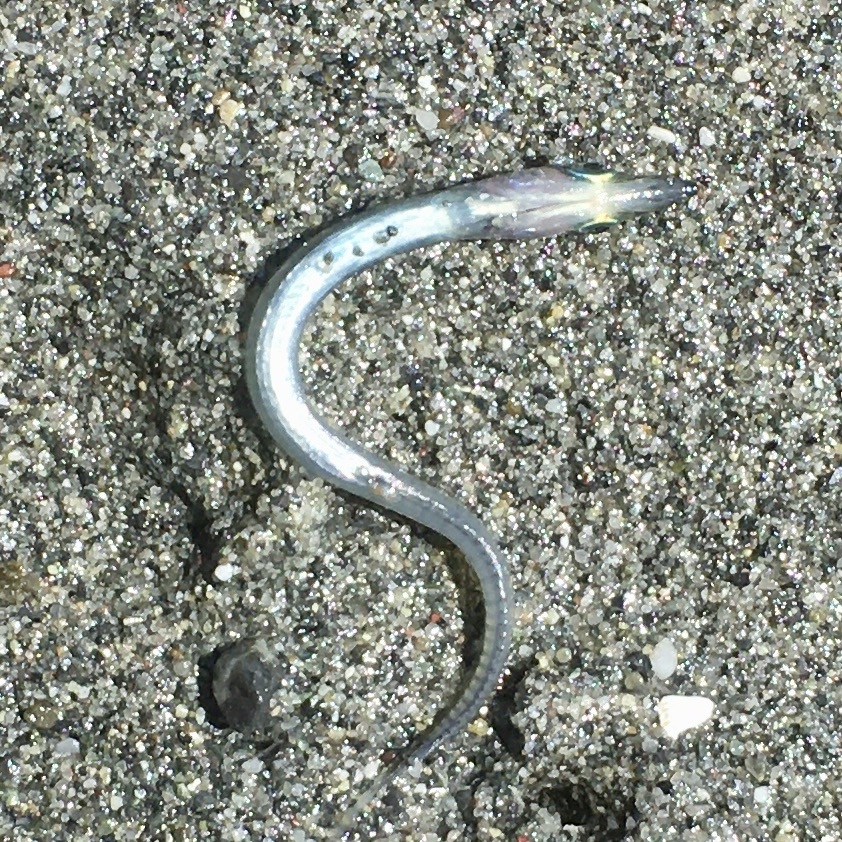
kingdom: Animalia
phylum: Chordata
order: Perciformes
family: Ammodytidae
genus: Ammodytes
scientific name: Ammodytes personatus
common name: Japanese sand lance
